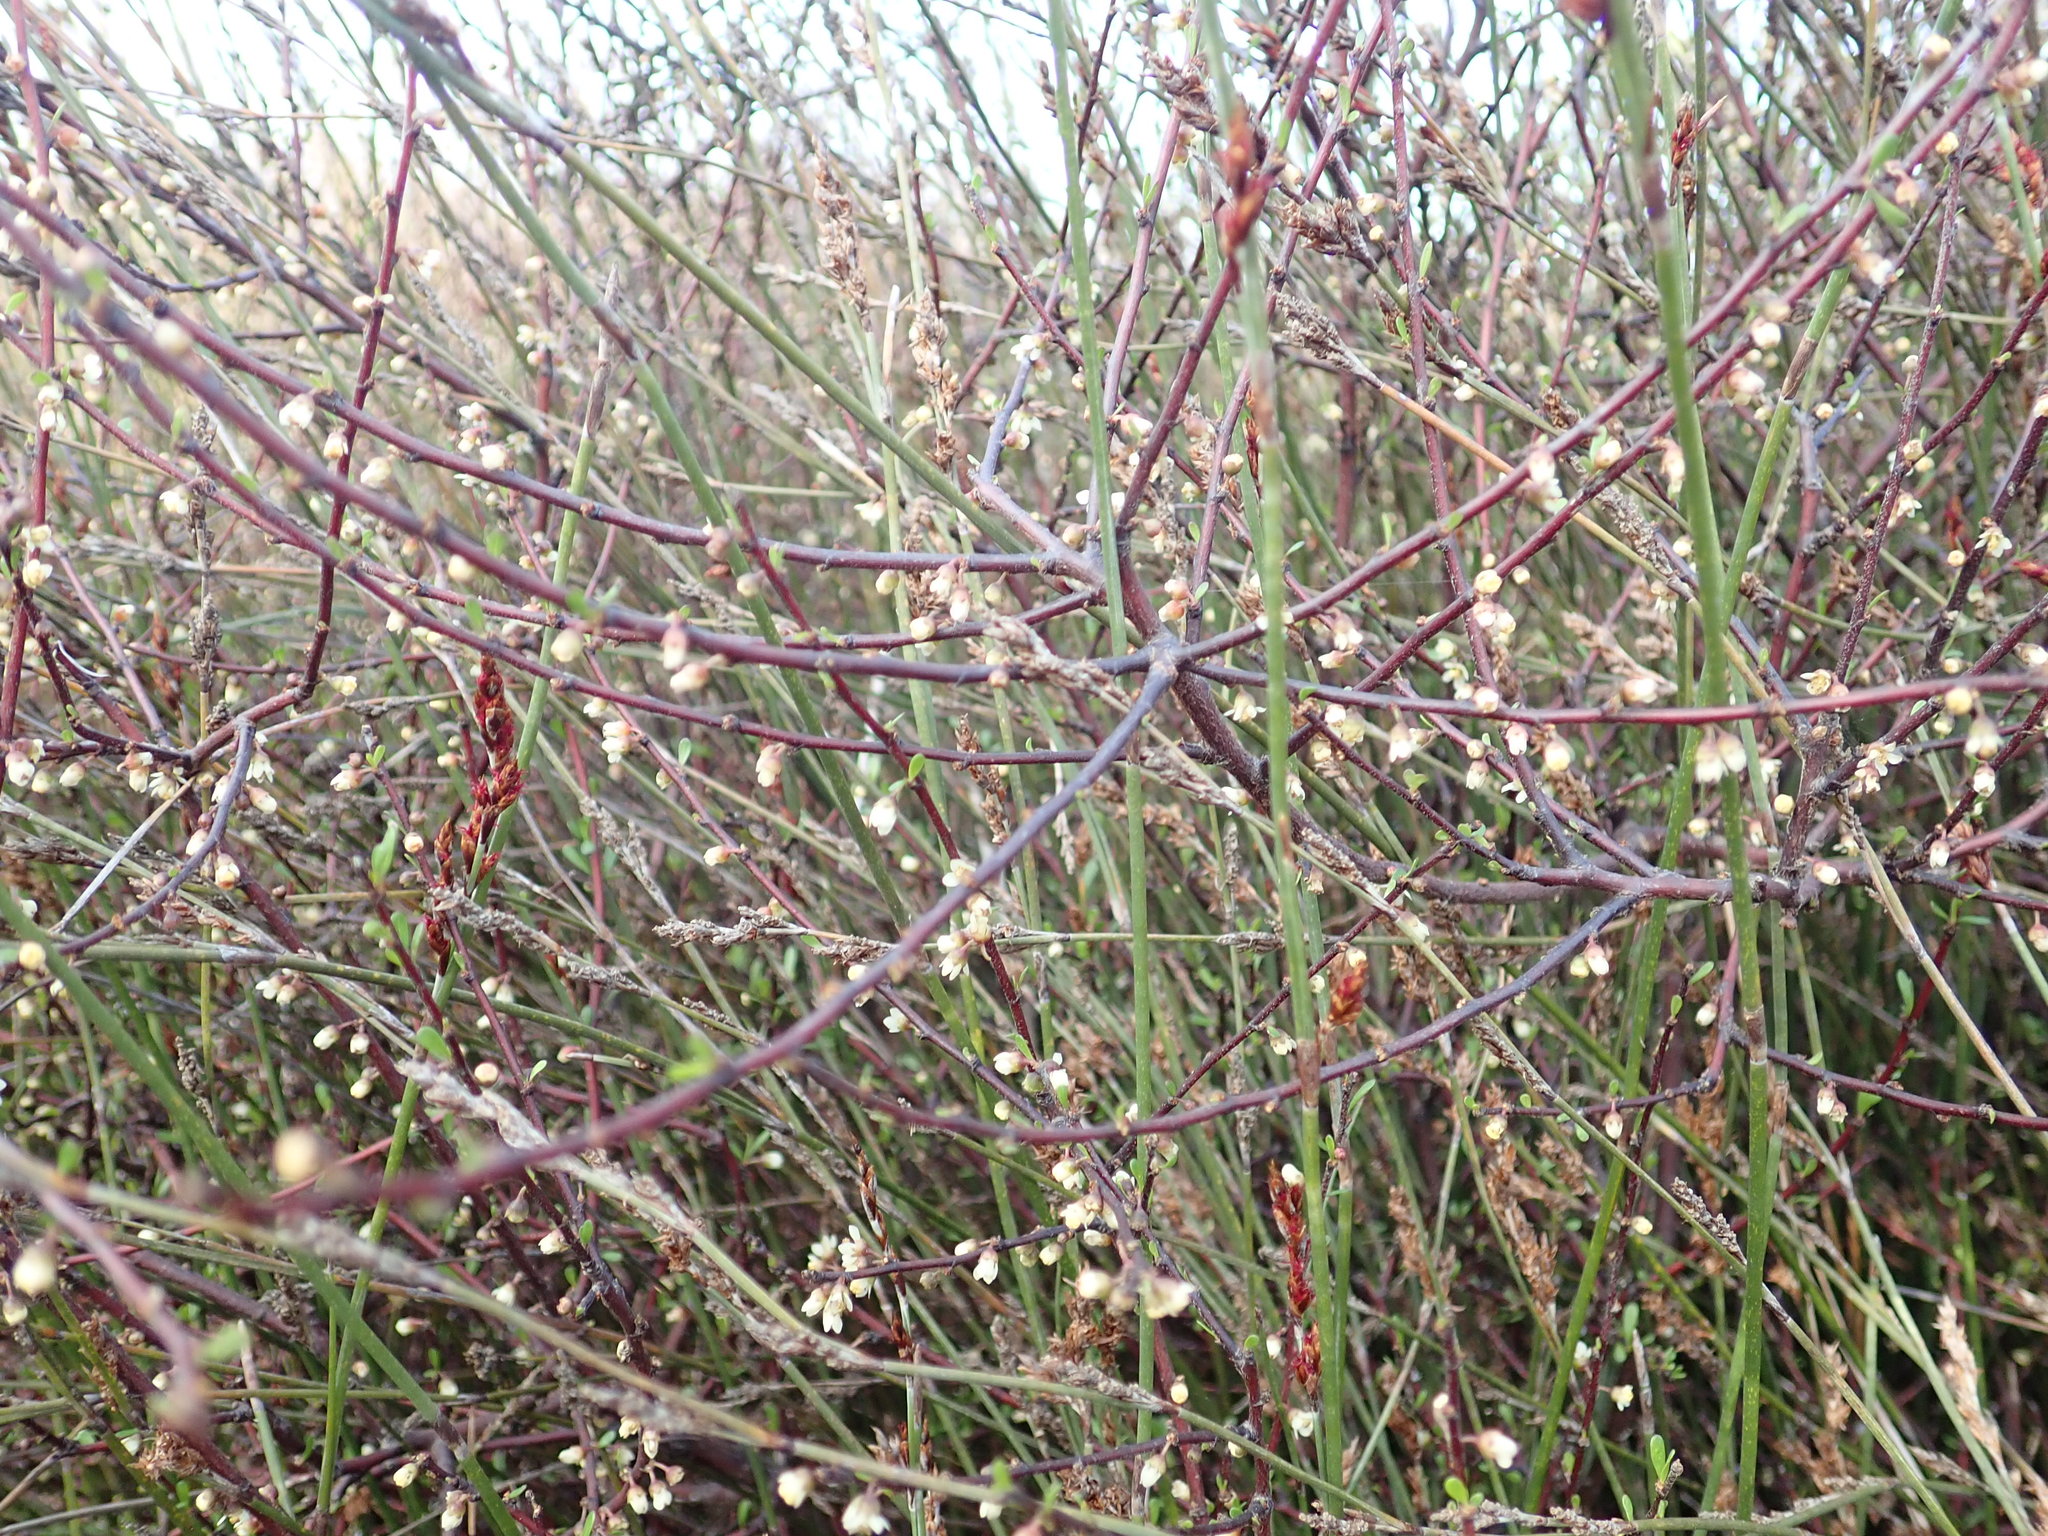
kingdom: Plantae
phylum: Tracheophyta
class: Magnoliopsida
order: Malvales
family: Malvaceae
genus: Plagianthus
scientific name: Plagianthus divaricatus
